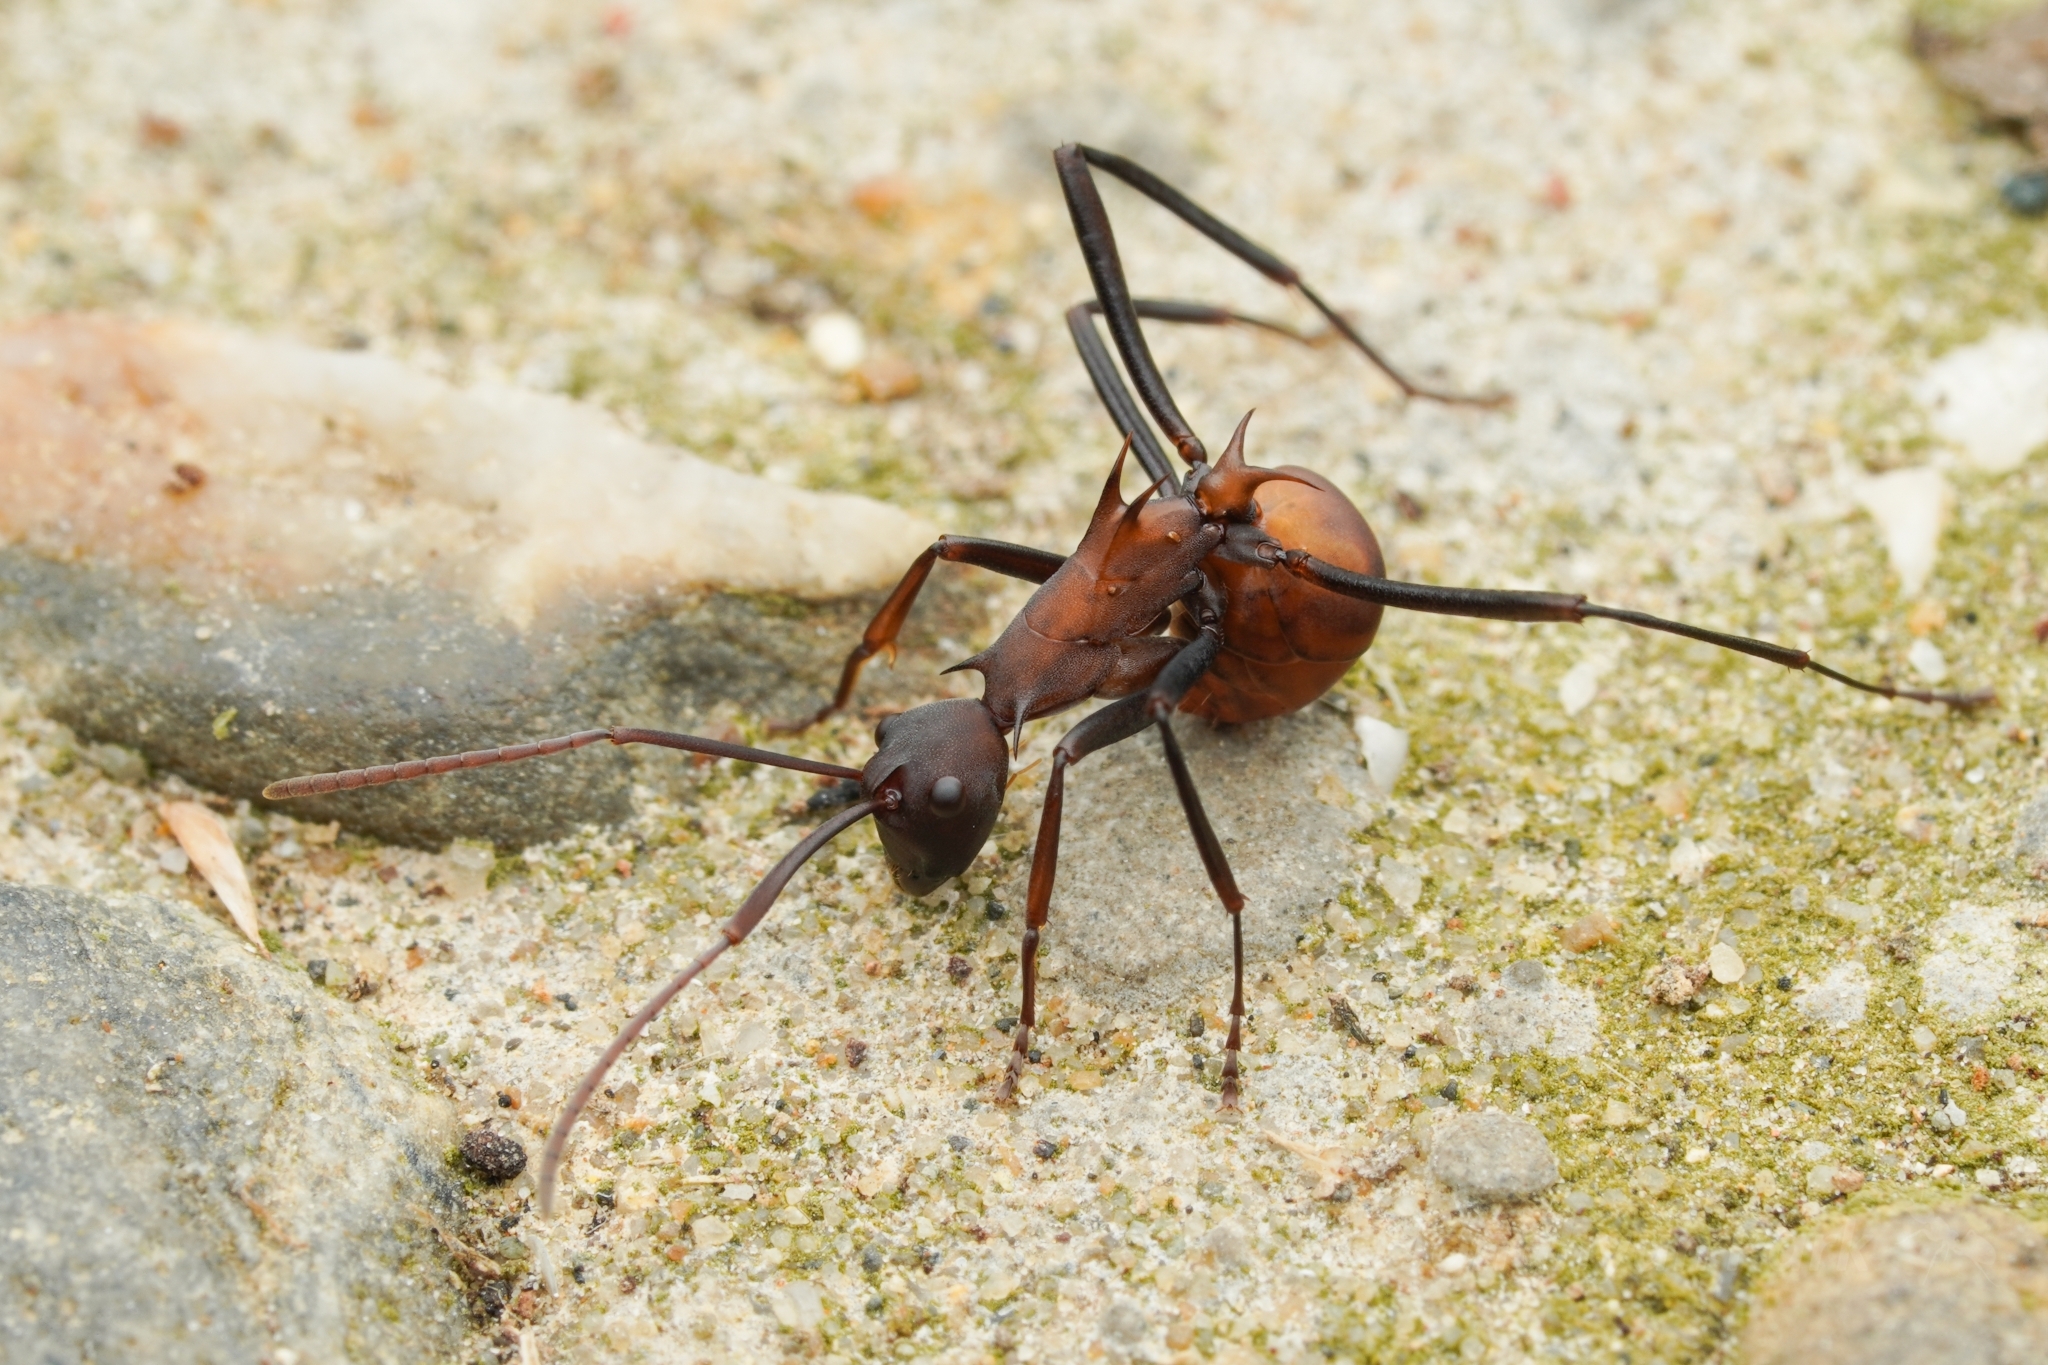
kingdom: Animalia
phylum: Arthropoda
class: Insecta
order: Hymenoptera
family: Formicidae
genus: Polyrhachis
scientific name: Polyrhachis abdominalis
